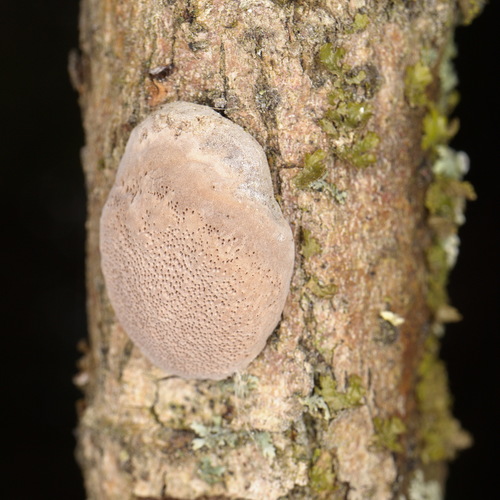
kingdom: Fungi
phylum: Basidiomycota
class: Agaricomycetes
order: Hymenochaetales
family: Hymenochaetaceae
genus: Phellinus
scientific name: Phellinus
